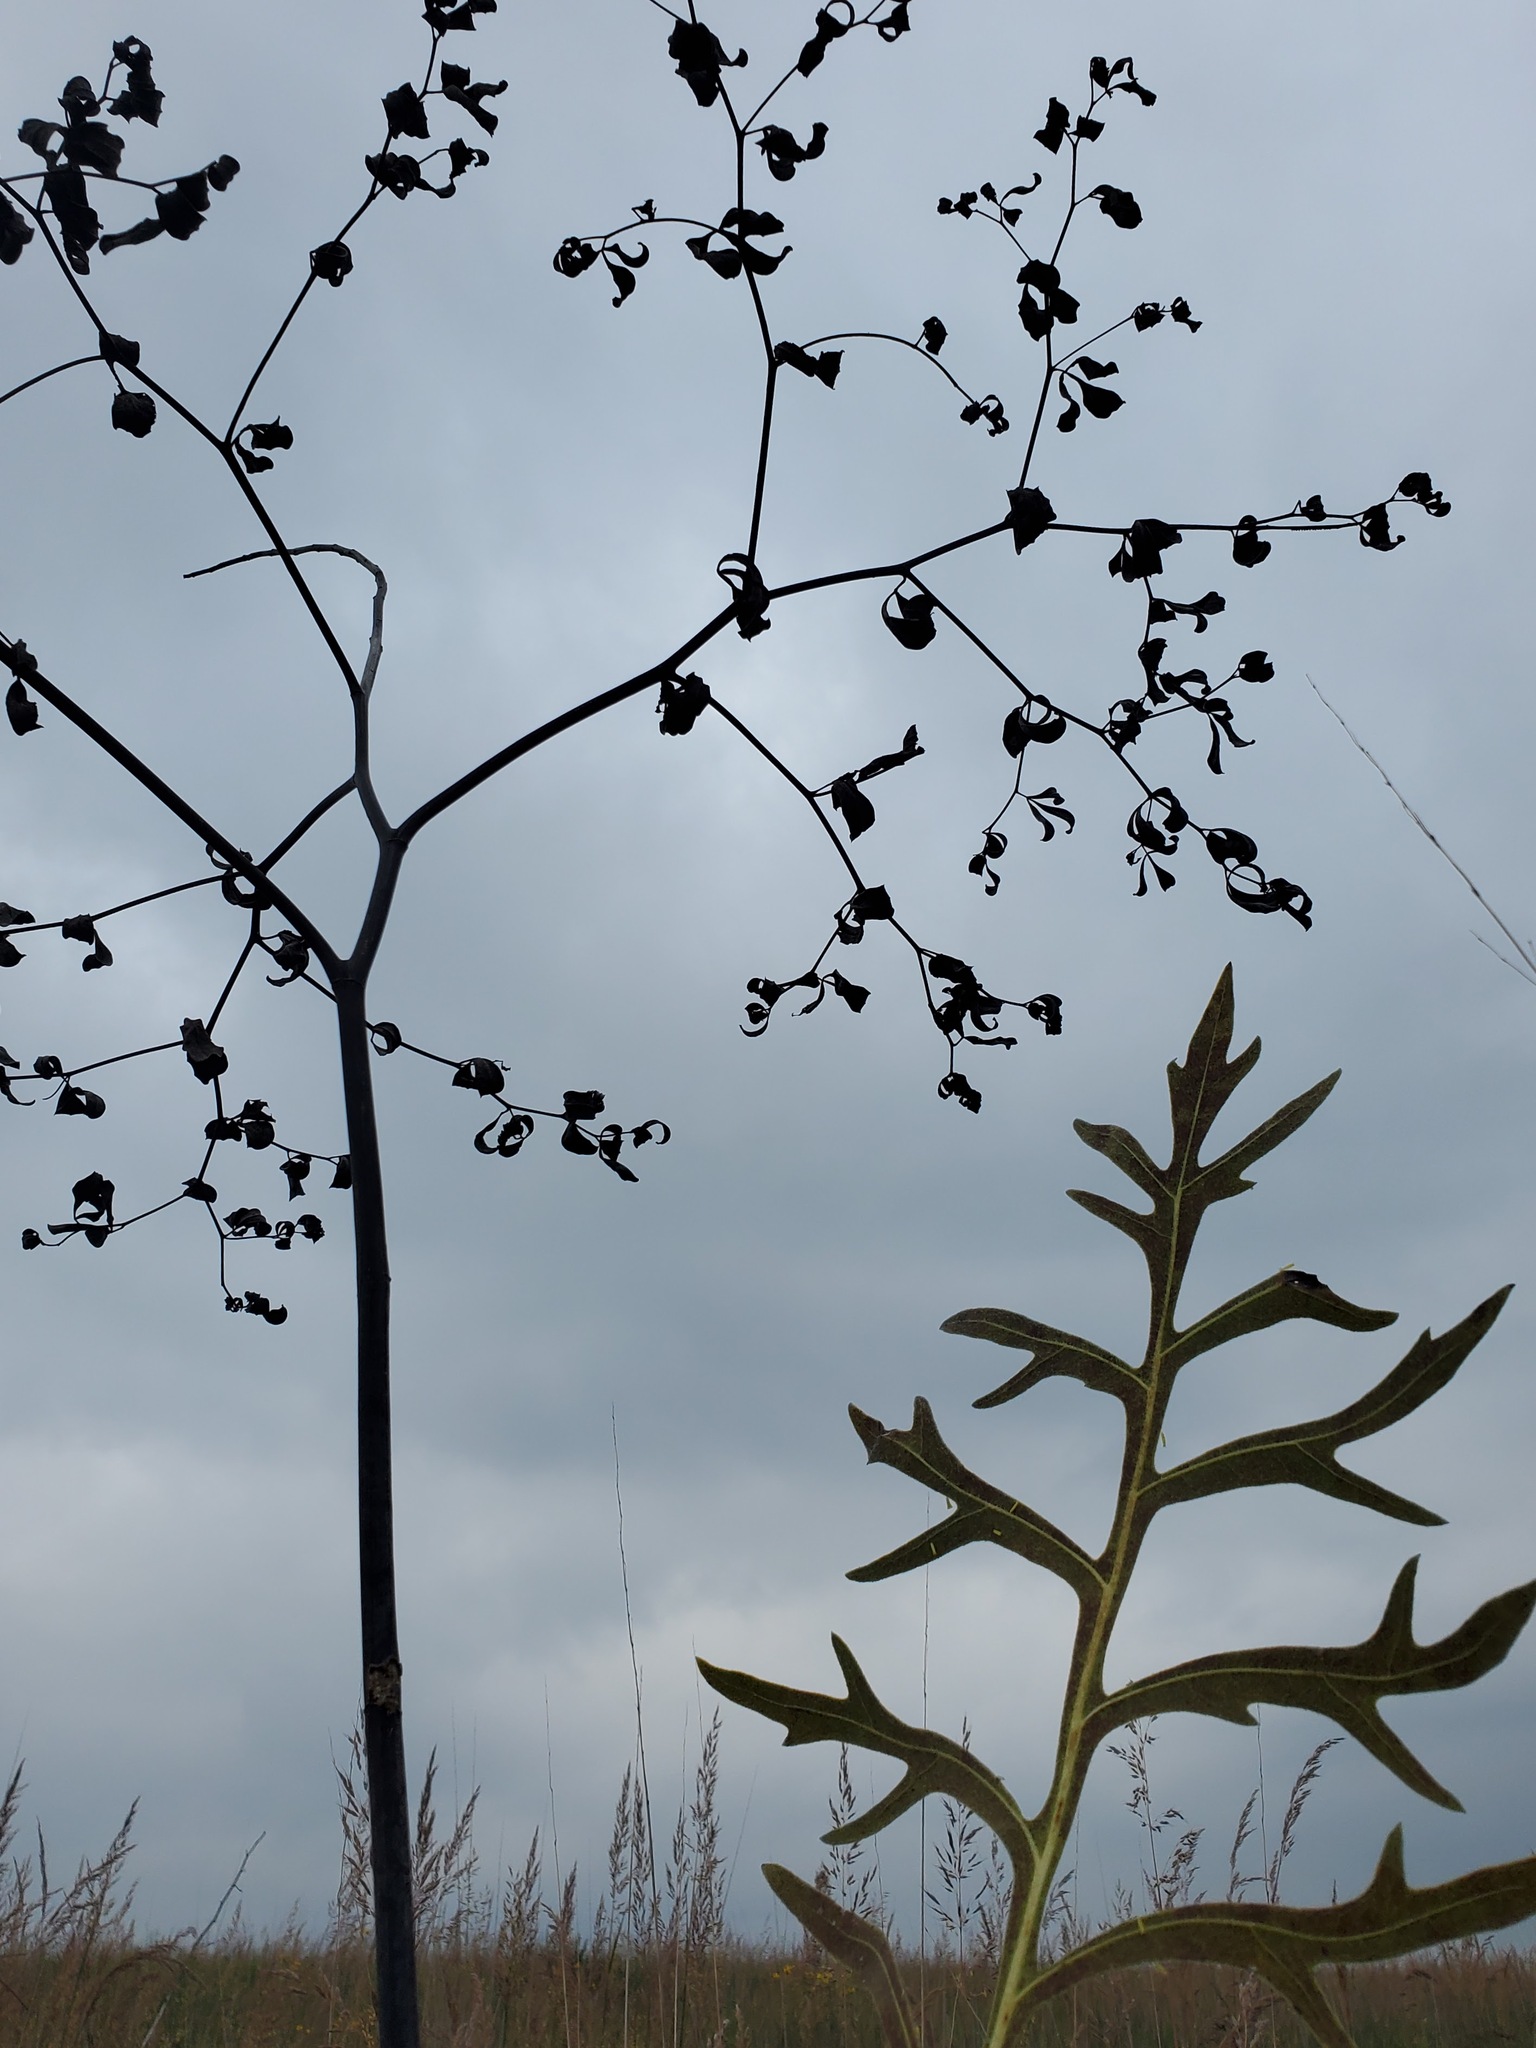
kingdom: Plantae
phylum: Tracheophyta
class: Magnoliopsida
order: Asterales
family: Asteraceae
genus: Silphium
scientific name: Silphium laciniatum
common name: Polarplant
